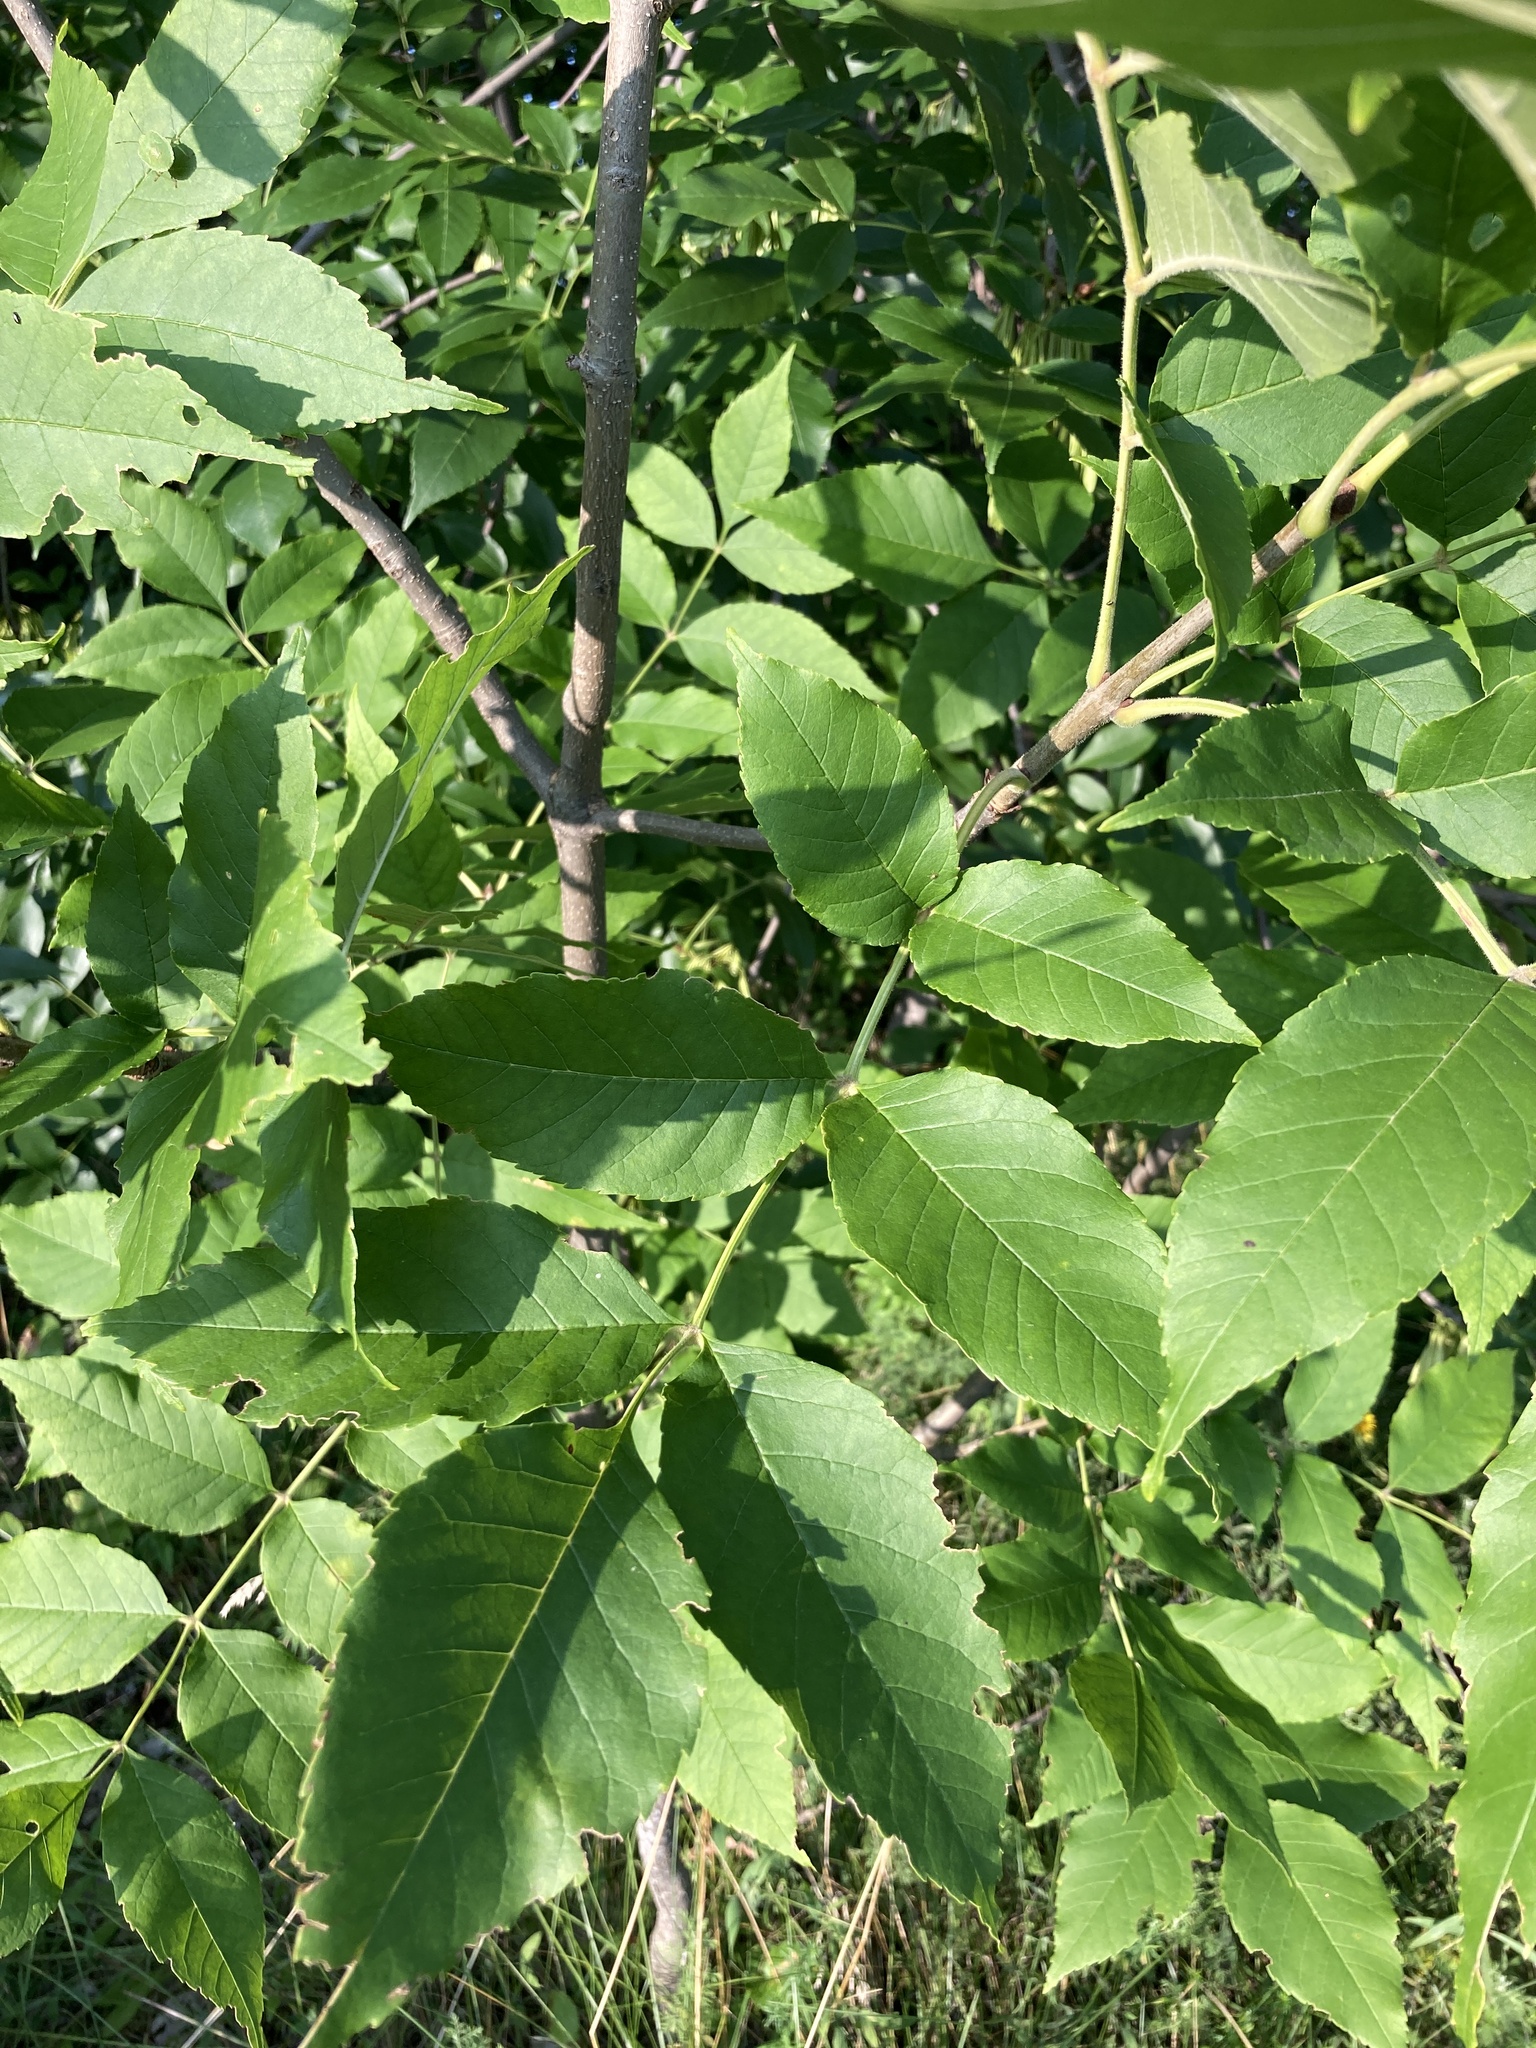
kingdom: Plantae
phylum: Tracheophyta
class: Magnoliopsida
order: Lamiales
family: Oleaceae
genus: Fraxinus
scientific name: Fraxinus pennsylvanica
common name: Green ash
